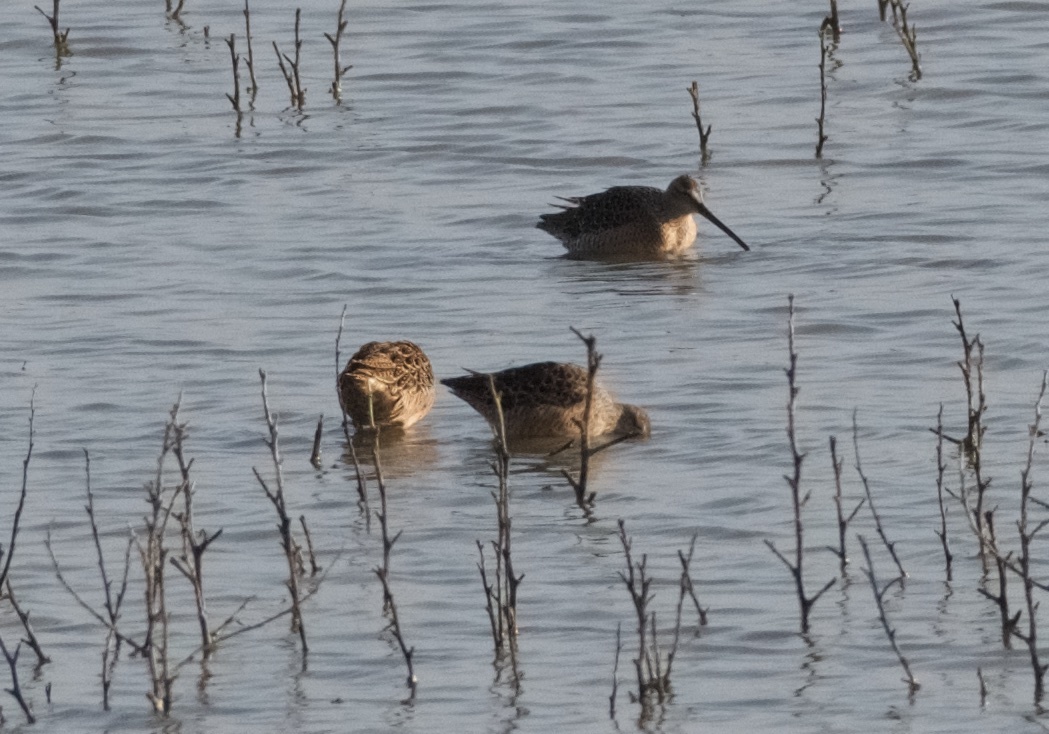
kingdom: Animalia
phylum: Chordata
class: Aves
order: Charadriiformes
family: Scolopacidae
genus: Limnodromus
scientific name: Limnodromus scolopaceus
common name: Long-billed dowitcher
